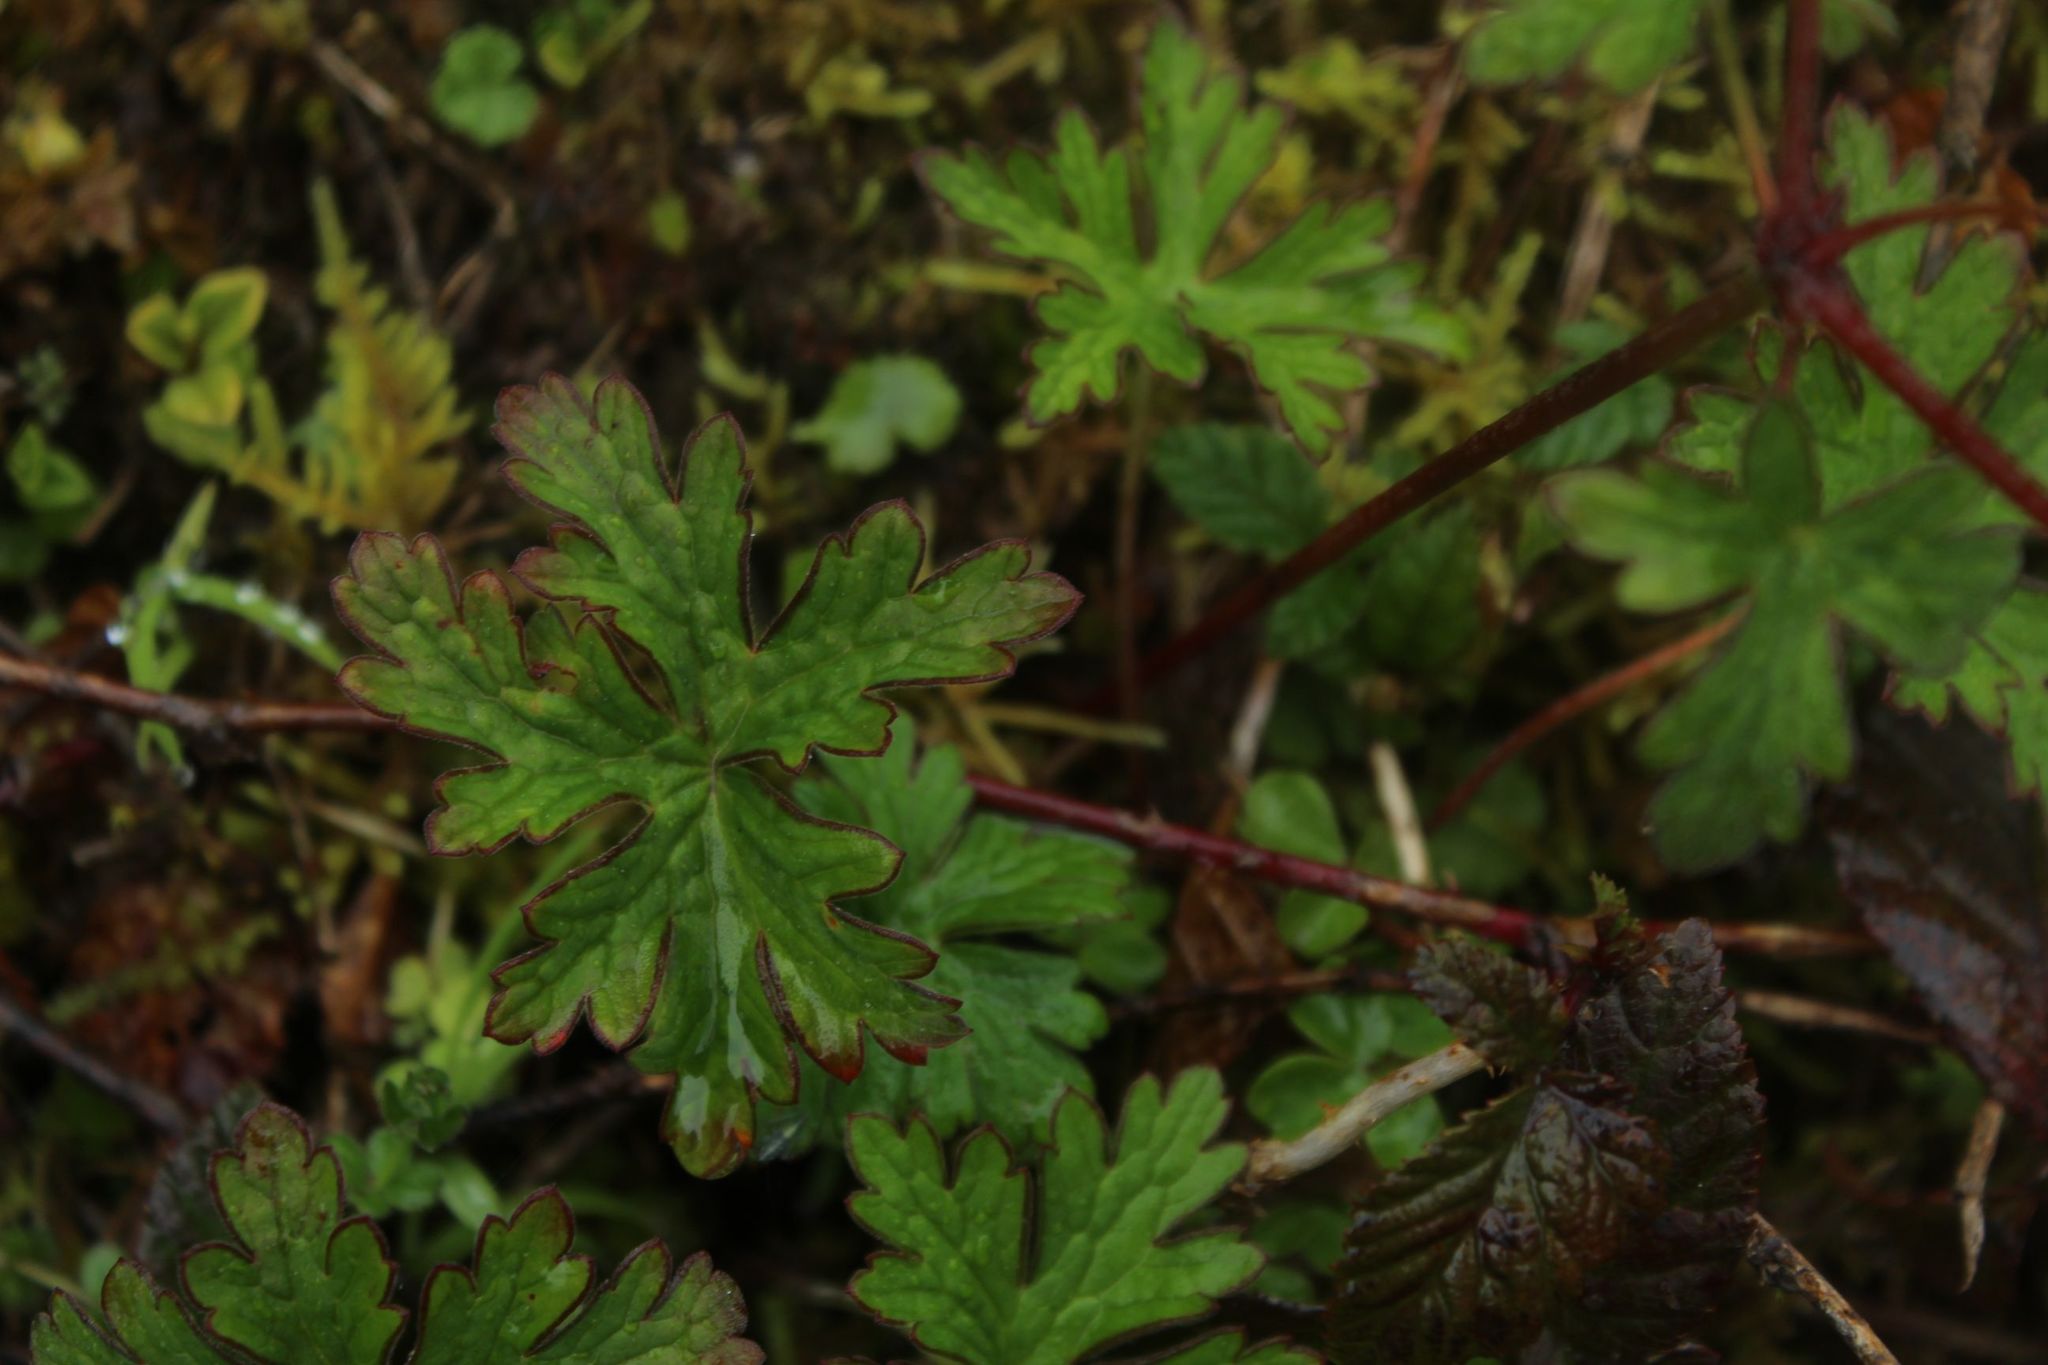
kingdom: Plantae
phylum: Tracheophyta
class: Magnoliopsida
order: Geraniales
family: Geraniaceae
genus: Geranium
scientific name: Geranium holosericeum
